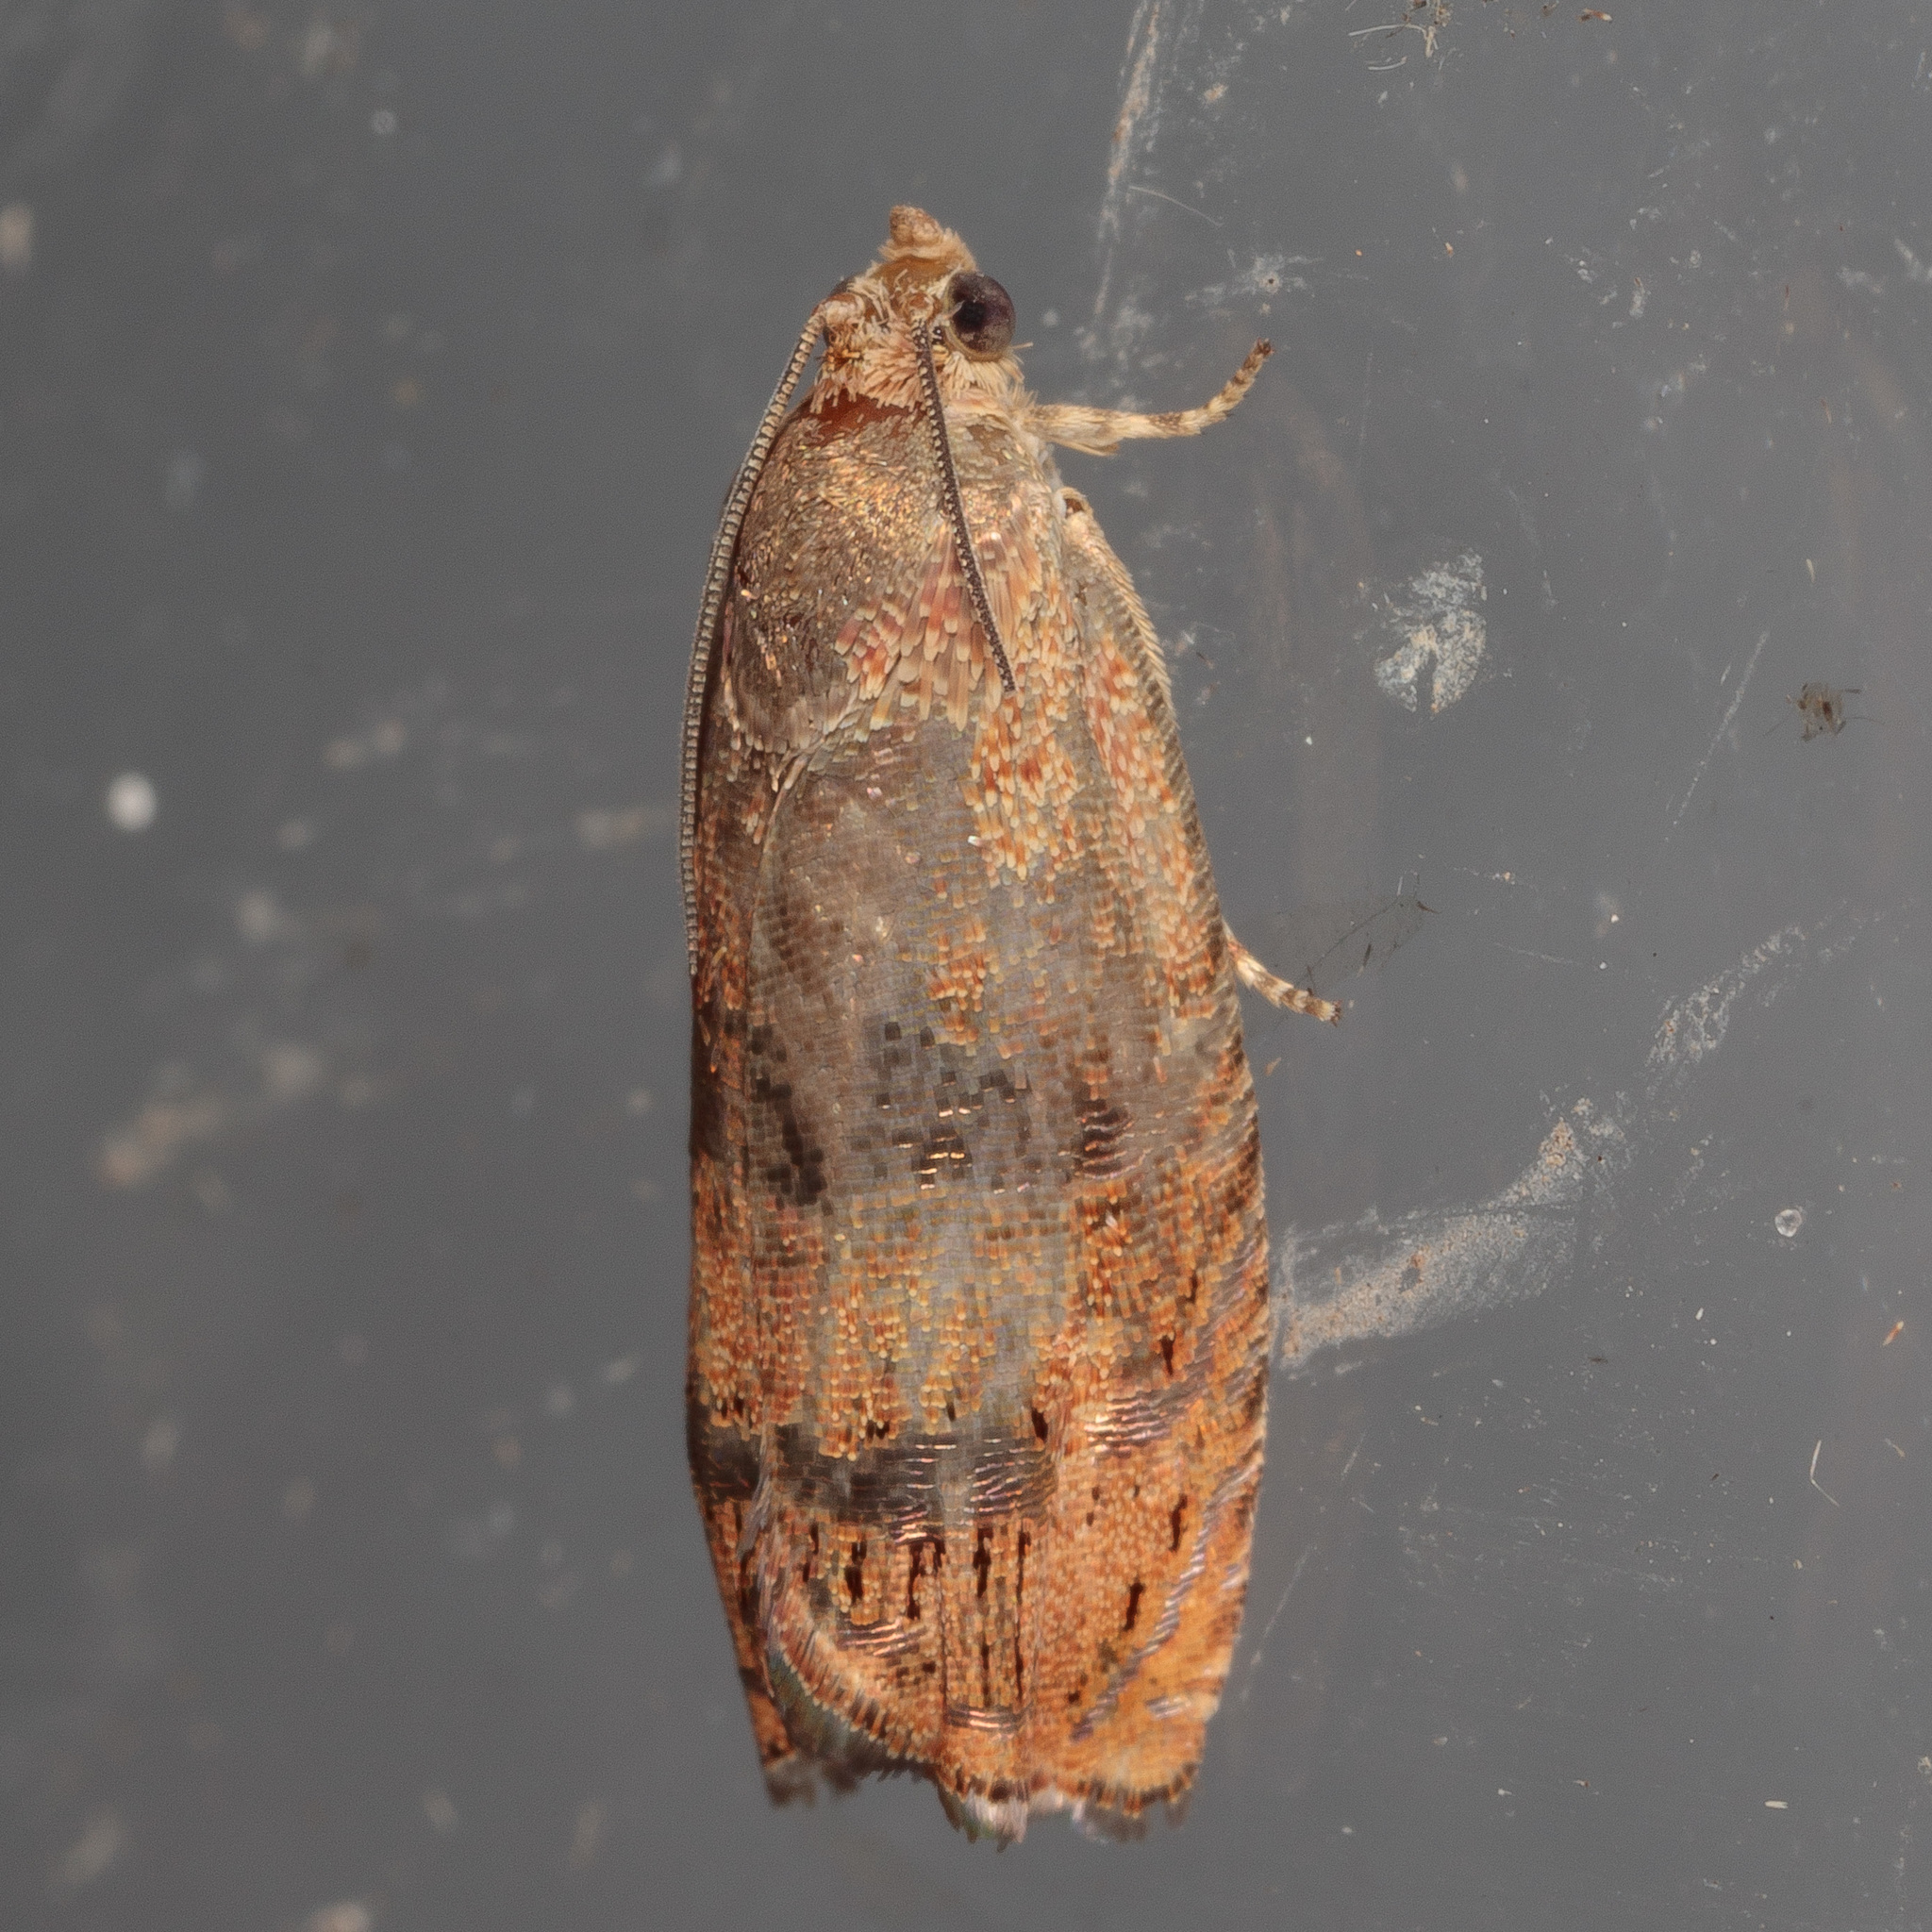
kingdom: Animalia
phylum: Arthropoda
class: Insecta
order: Lepidoptera
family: Tortricidae
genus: Cydia
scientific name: Cydia latiferreana
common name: Filbertworm moth
